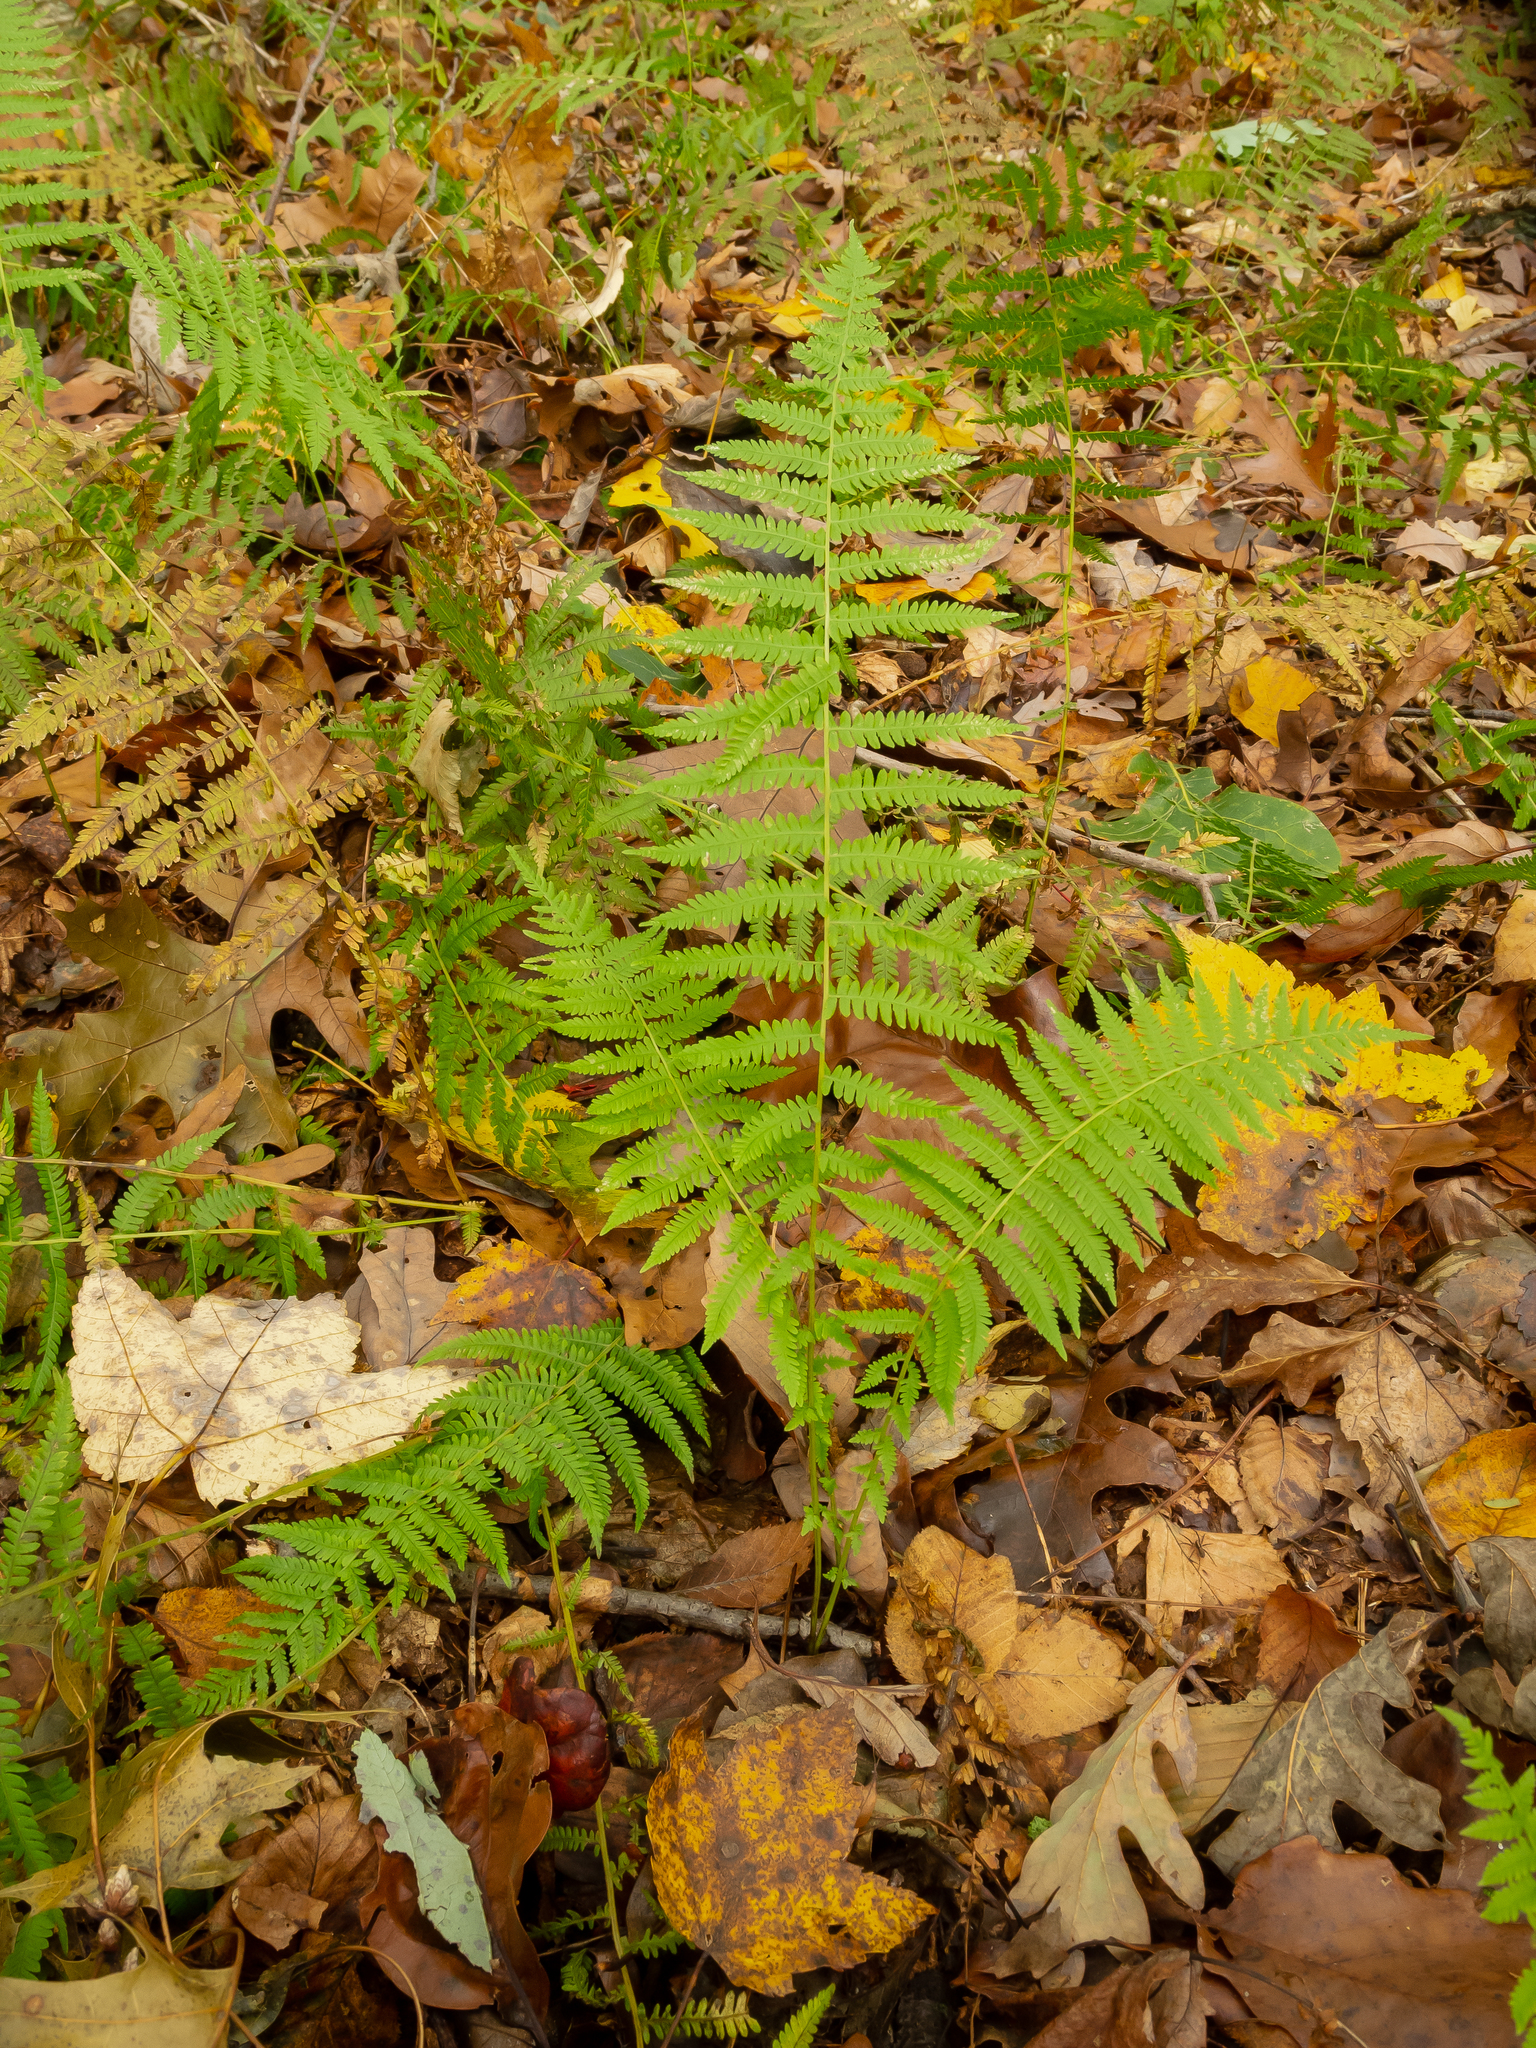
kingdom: Plantae
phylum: Tracheophyta
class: Polypodiopsida
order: Polypodiales
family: Thelypteridaceae
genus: Amauropelta
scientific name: Amauropelta noveboracensis
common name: New york fern
